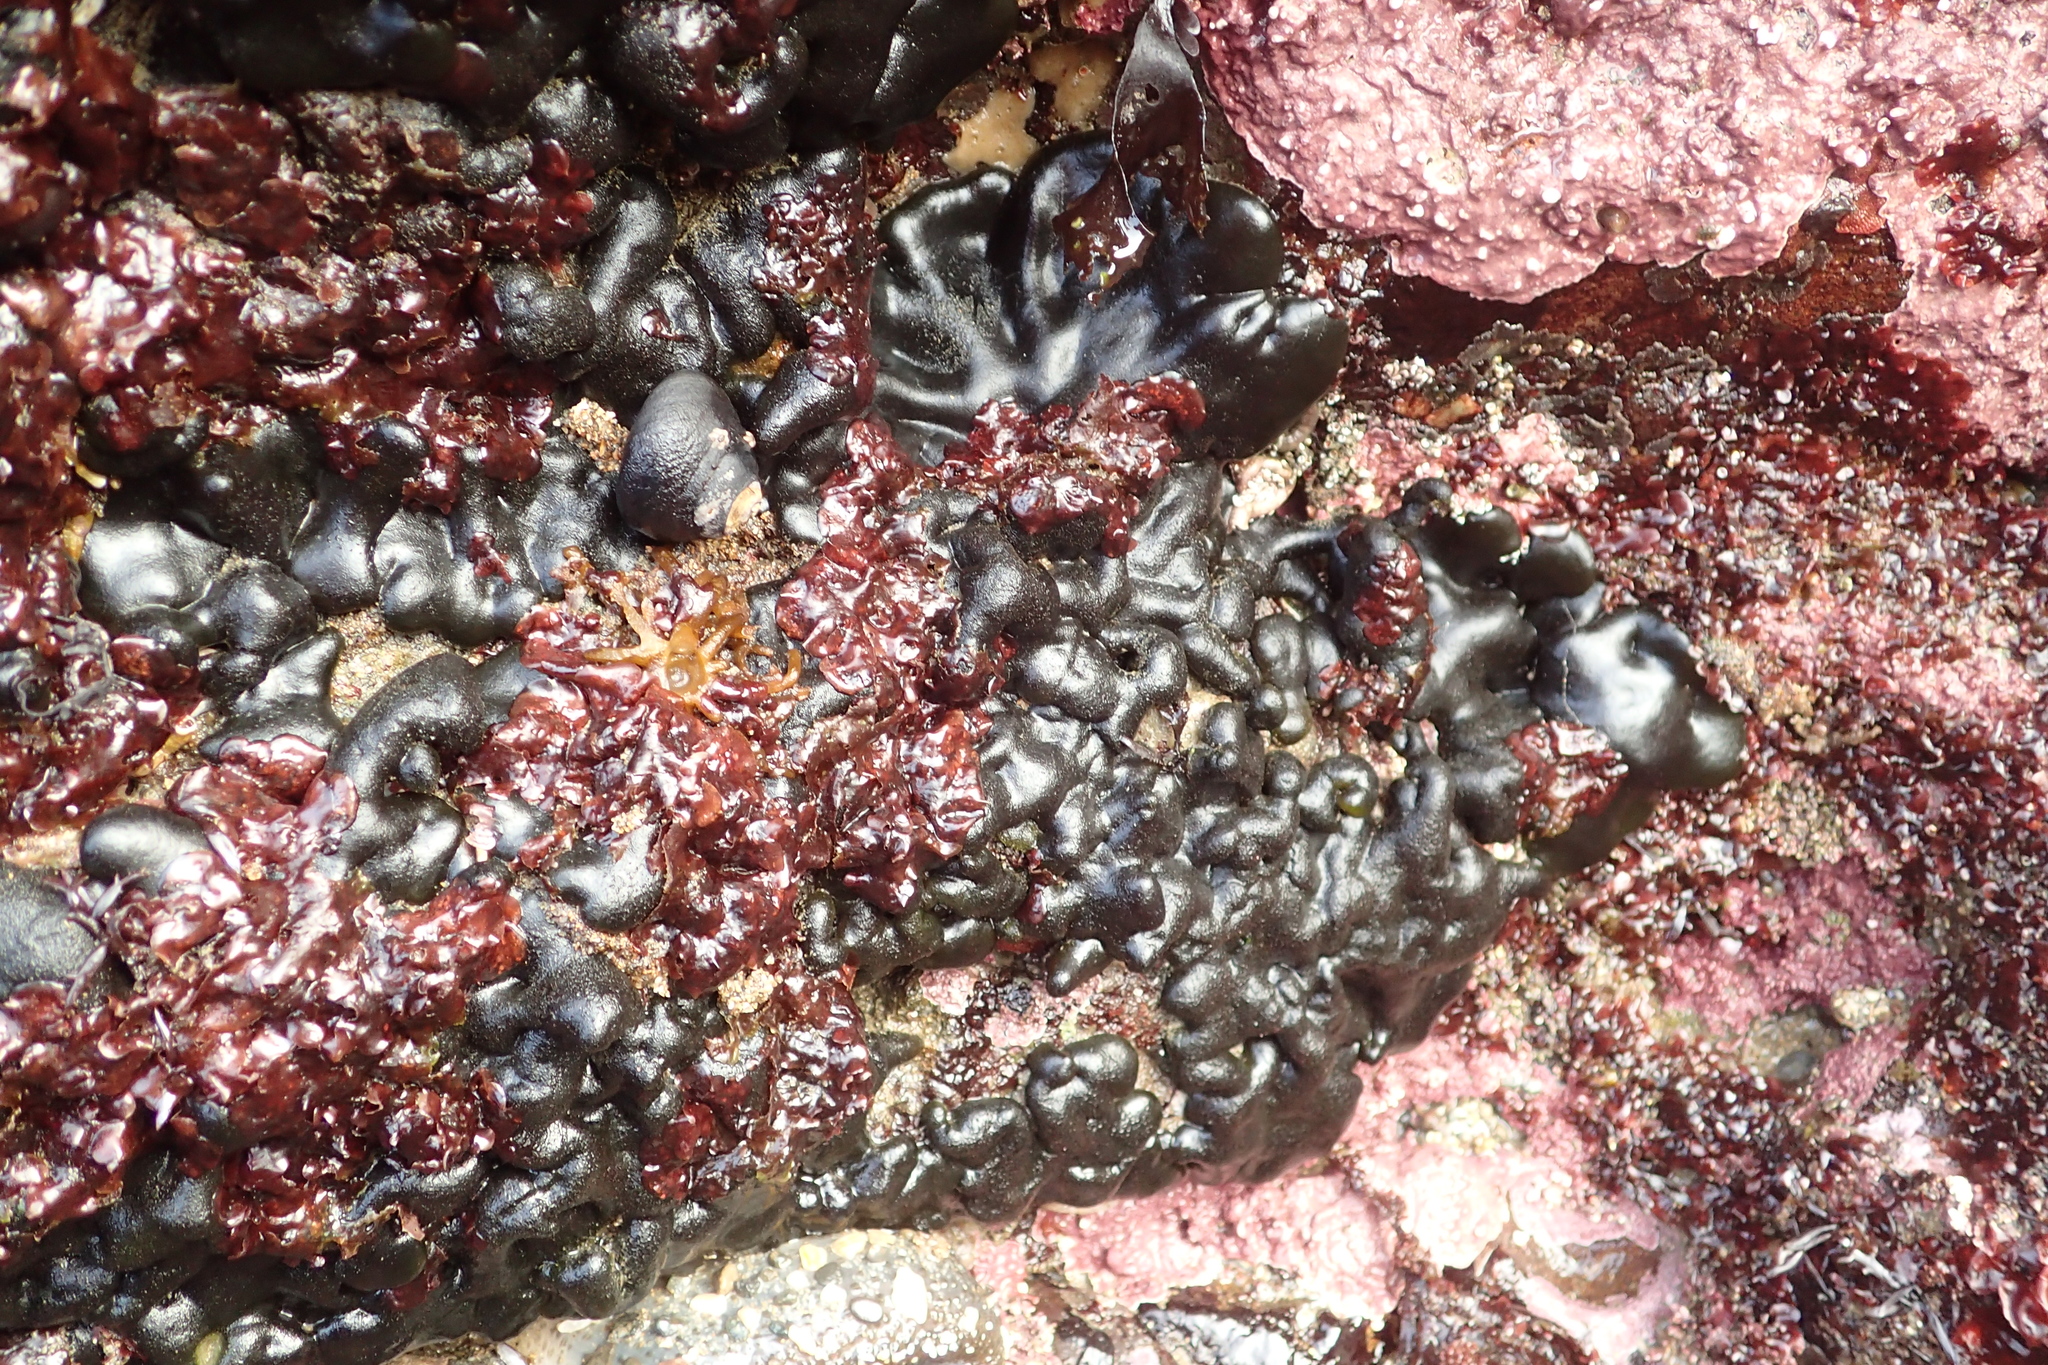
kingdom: Plantae
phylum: Chlorophyta
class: Ulvophyceae
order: Bryopsidales
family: Codiaceae
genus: Codium
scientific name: Codium setchellii
